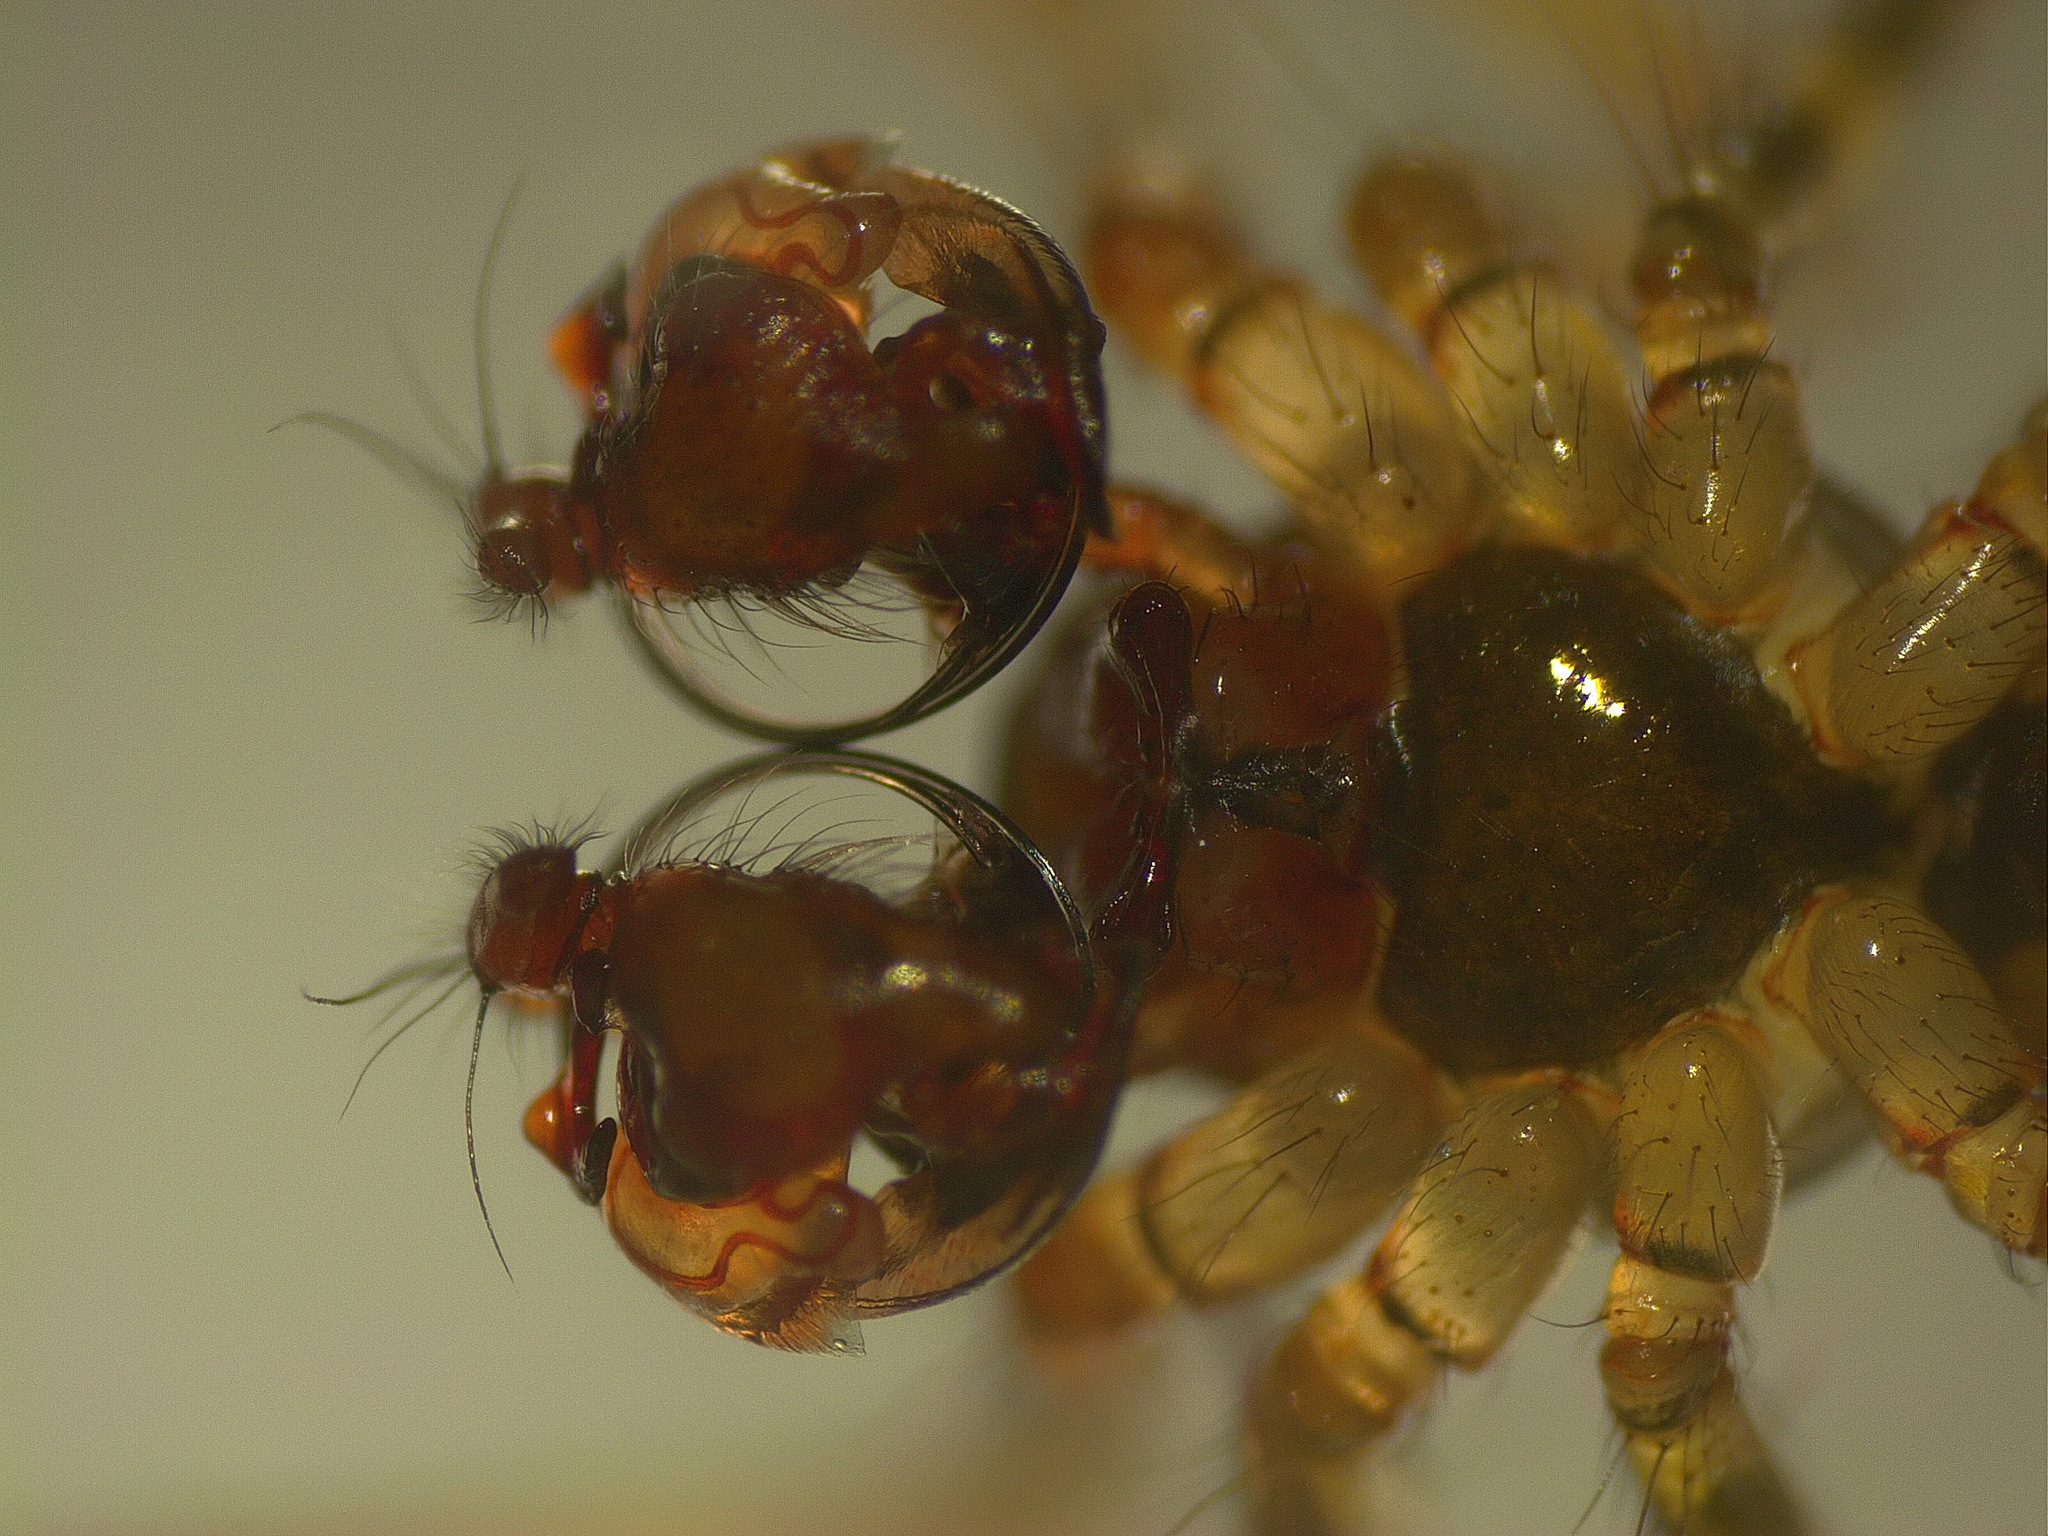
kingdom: Animalia
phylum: Arthropoda
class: Arachnida
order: Araneae
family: Linyphiidae
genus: Labulla
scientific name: Labulla thoracica
